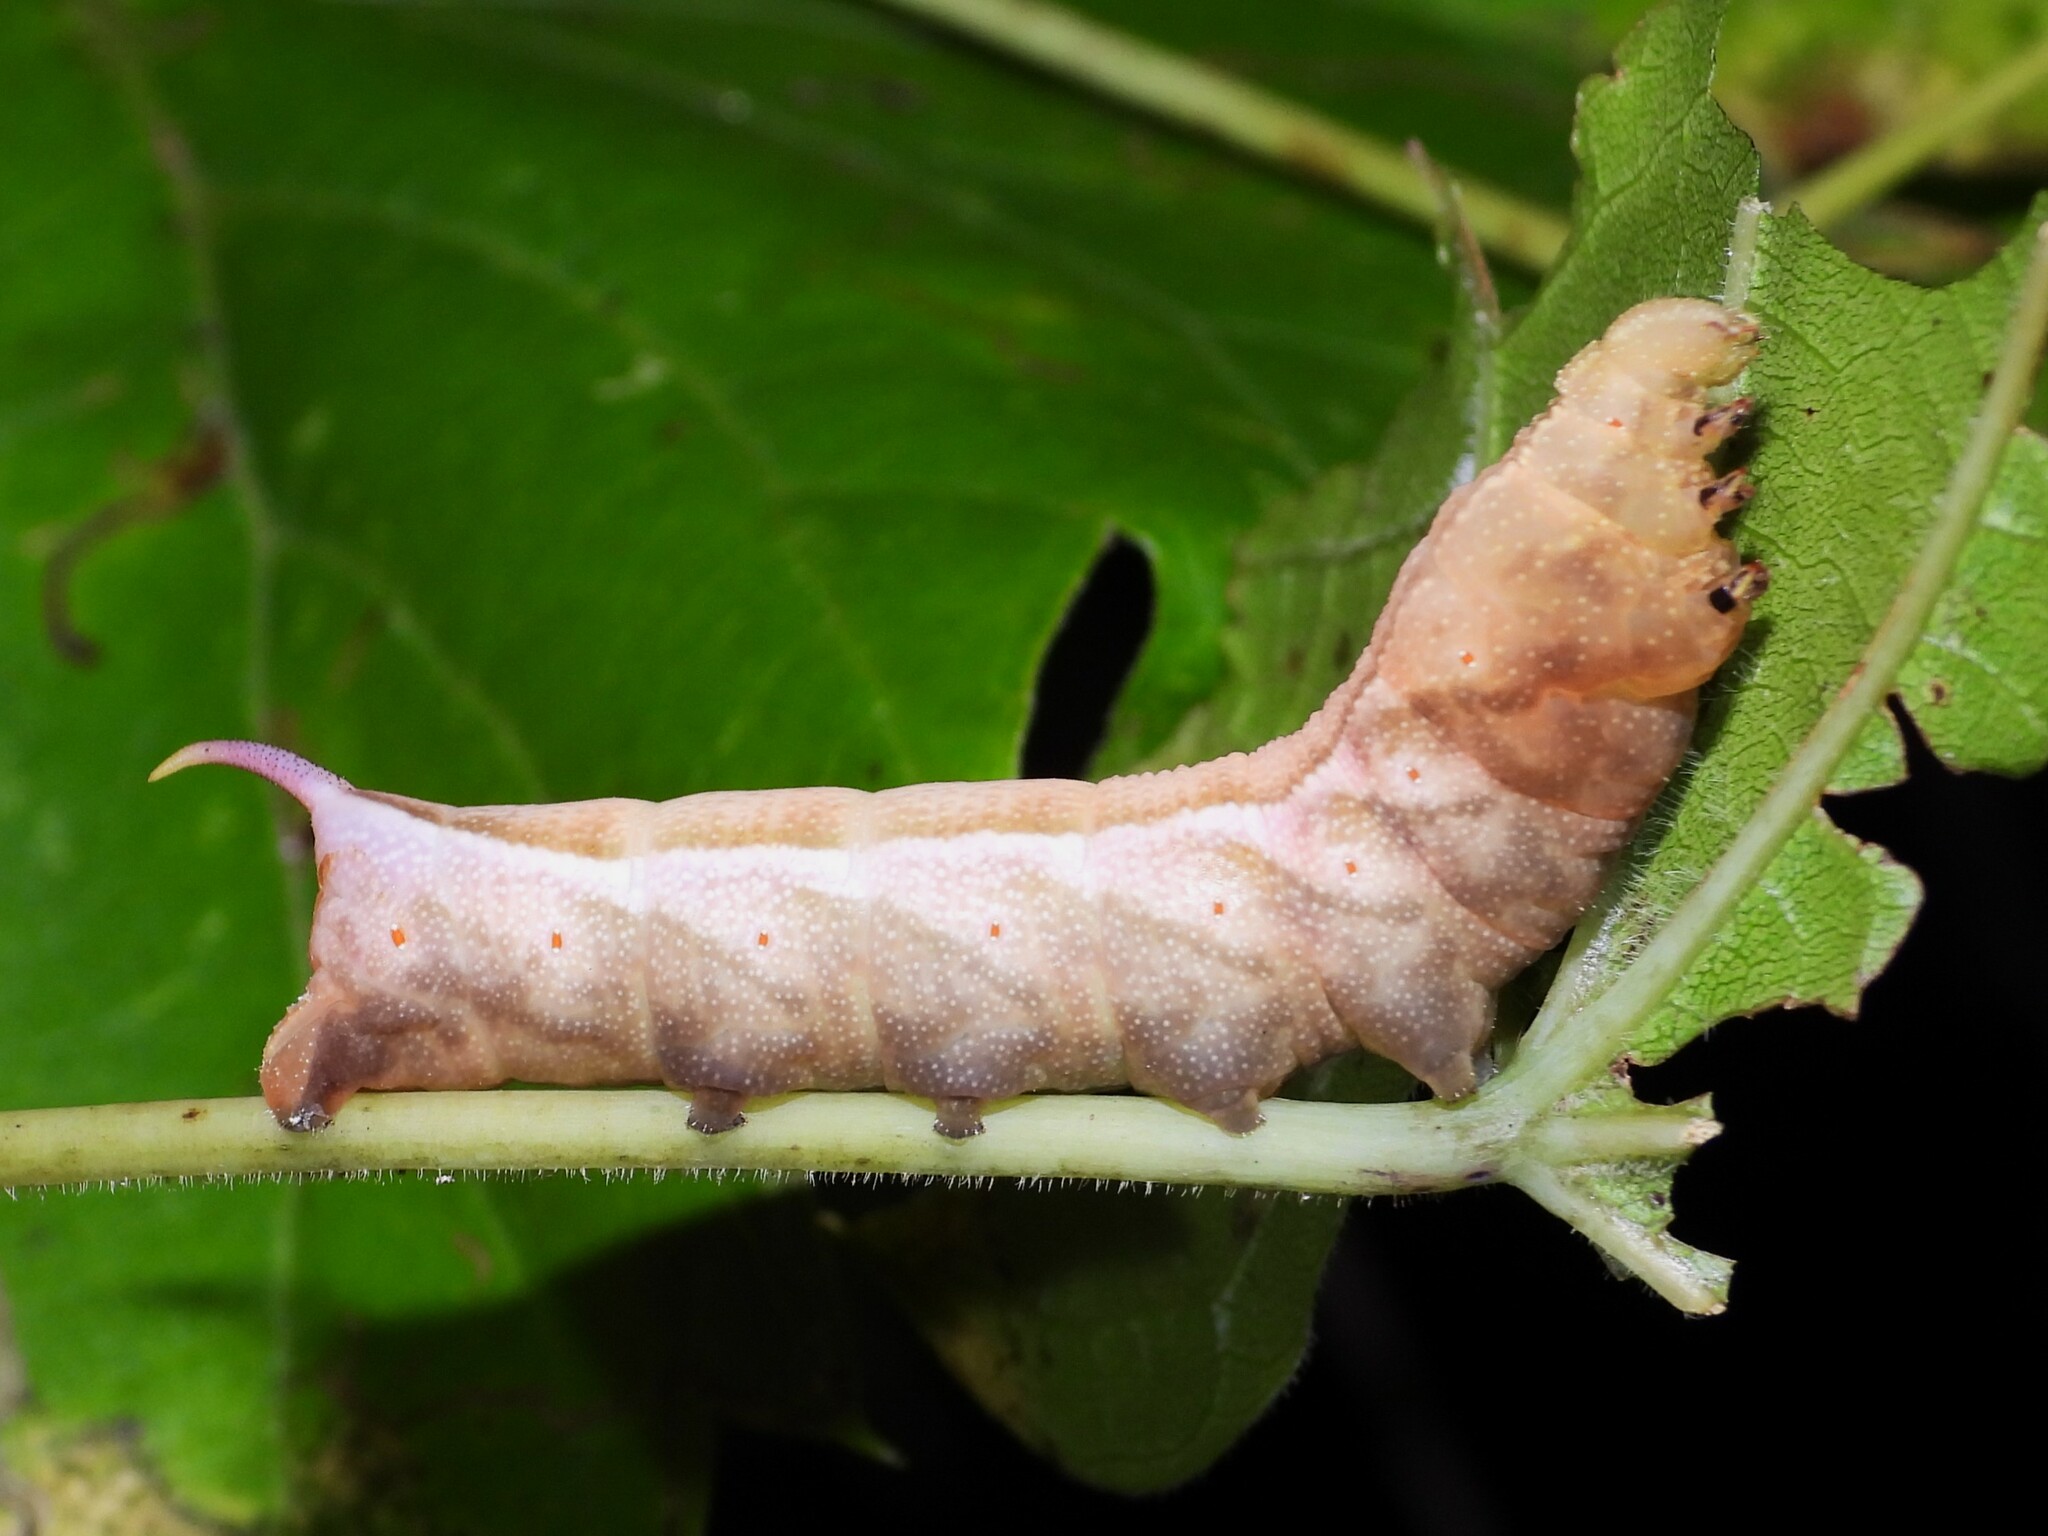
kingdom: Animalia
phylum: Arthropoda
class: Insecta
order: Lepidoptera
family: Sphingidae
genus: Darapsa
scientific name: Darapsa myron
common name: Hog sphinx
